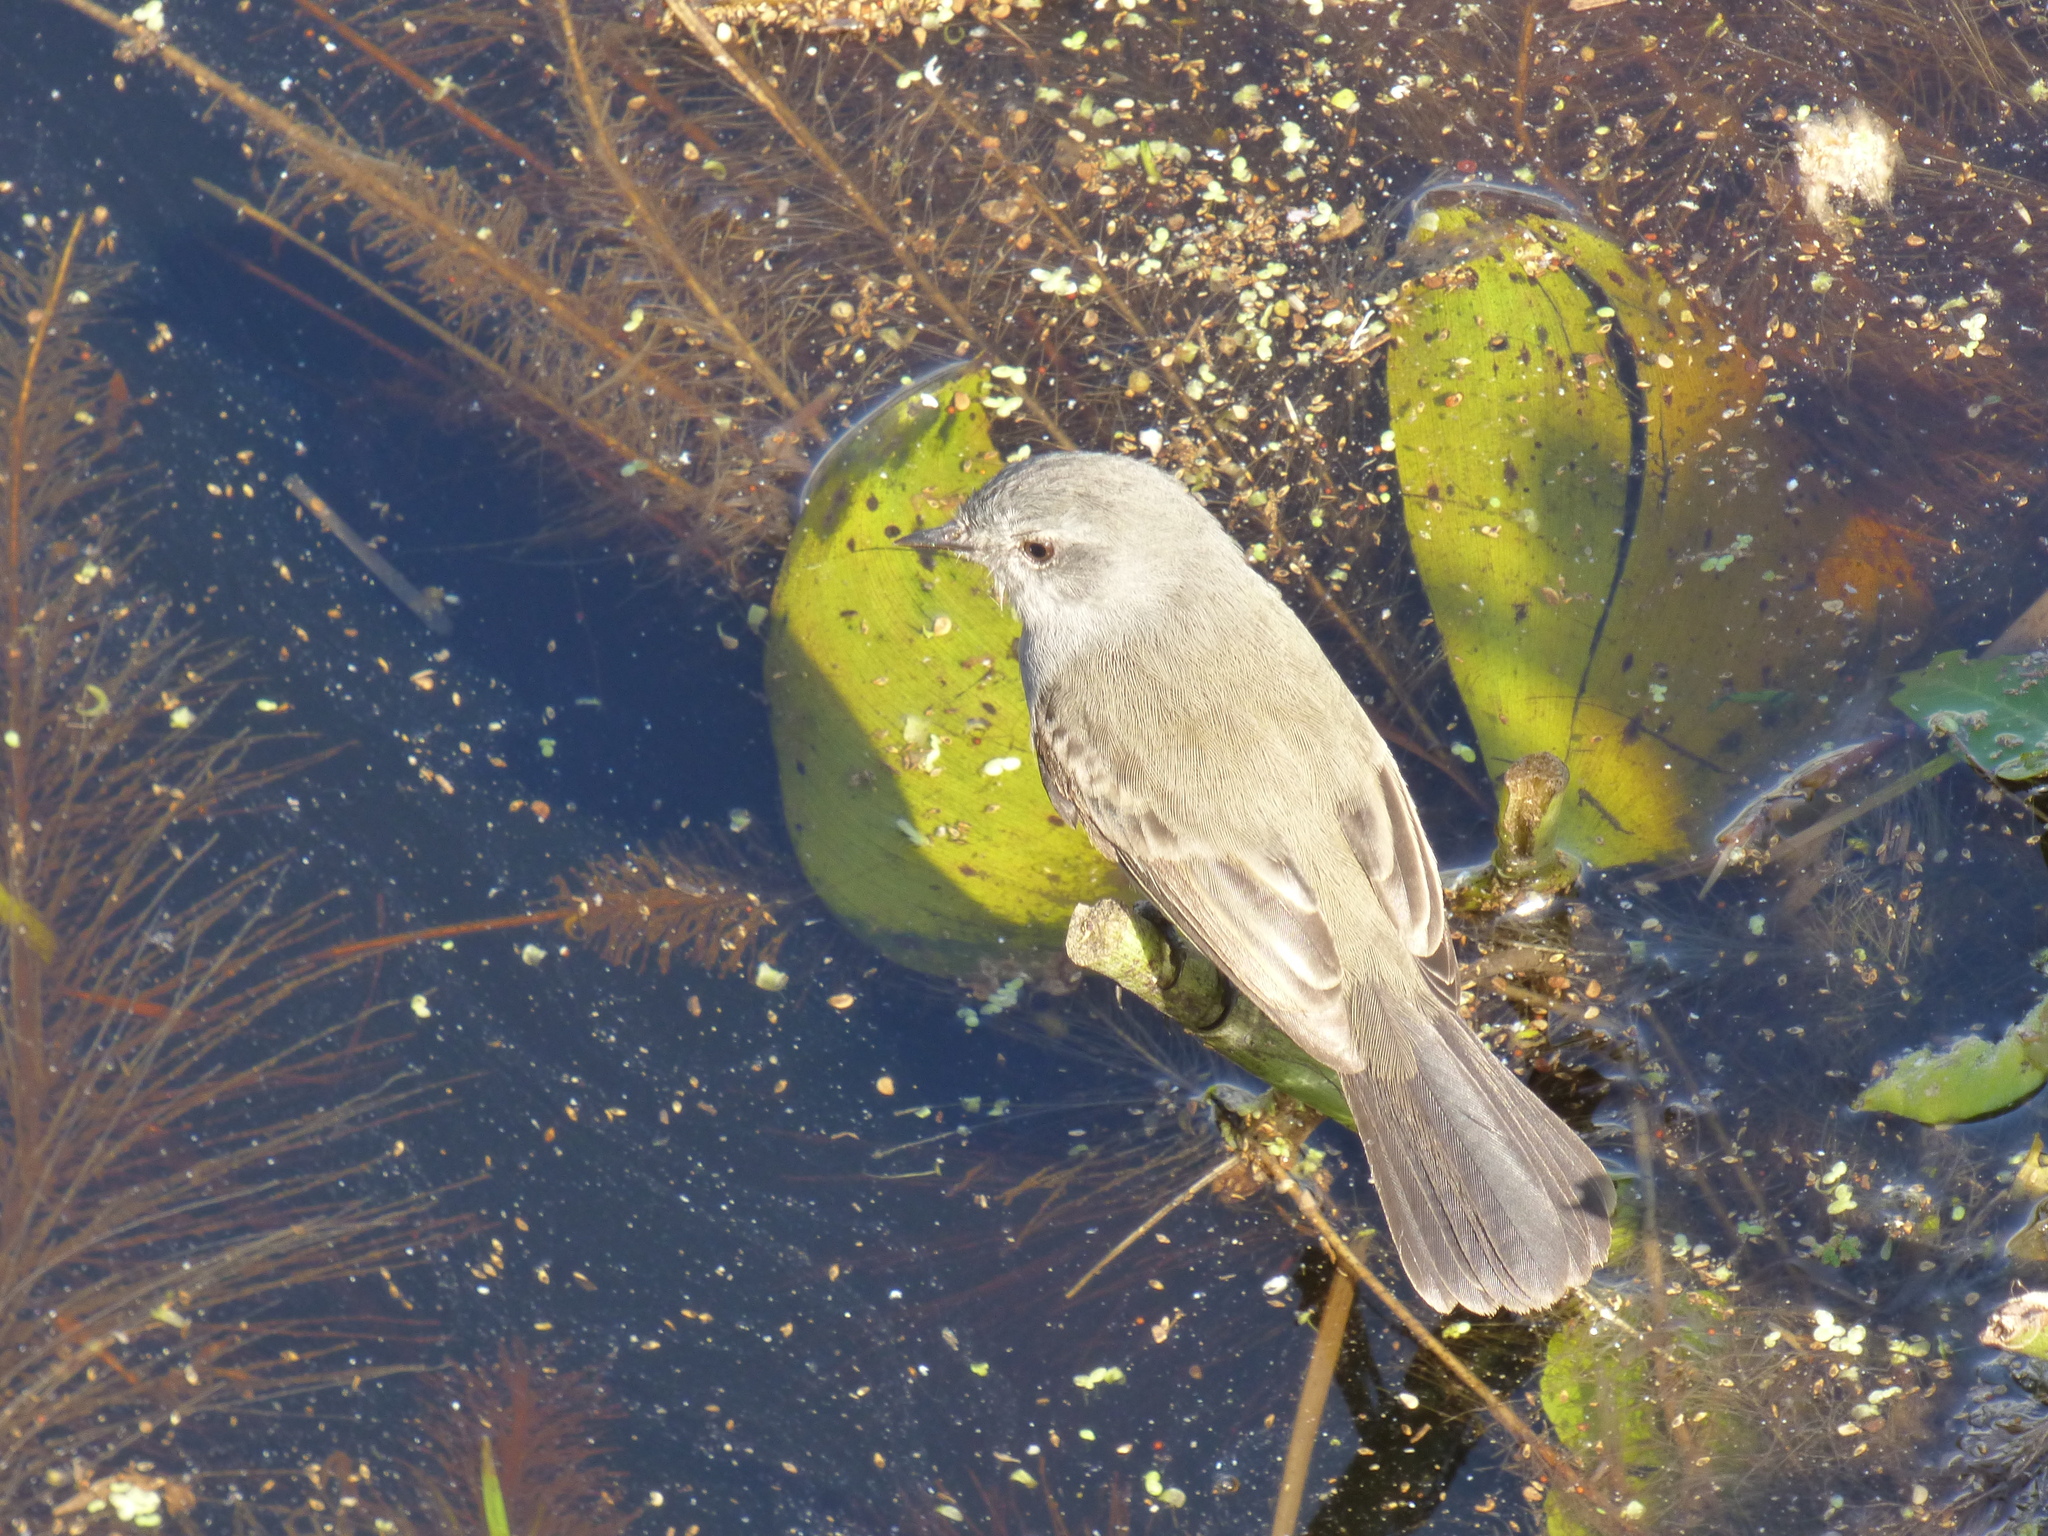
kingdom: Animalia
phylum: Chordata
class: Aves
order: Passeriformes
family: Tyrannidae
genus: Serpophaga
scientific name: Serpophaga nigricans
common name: Sooty tyrannulet
